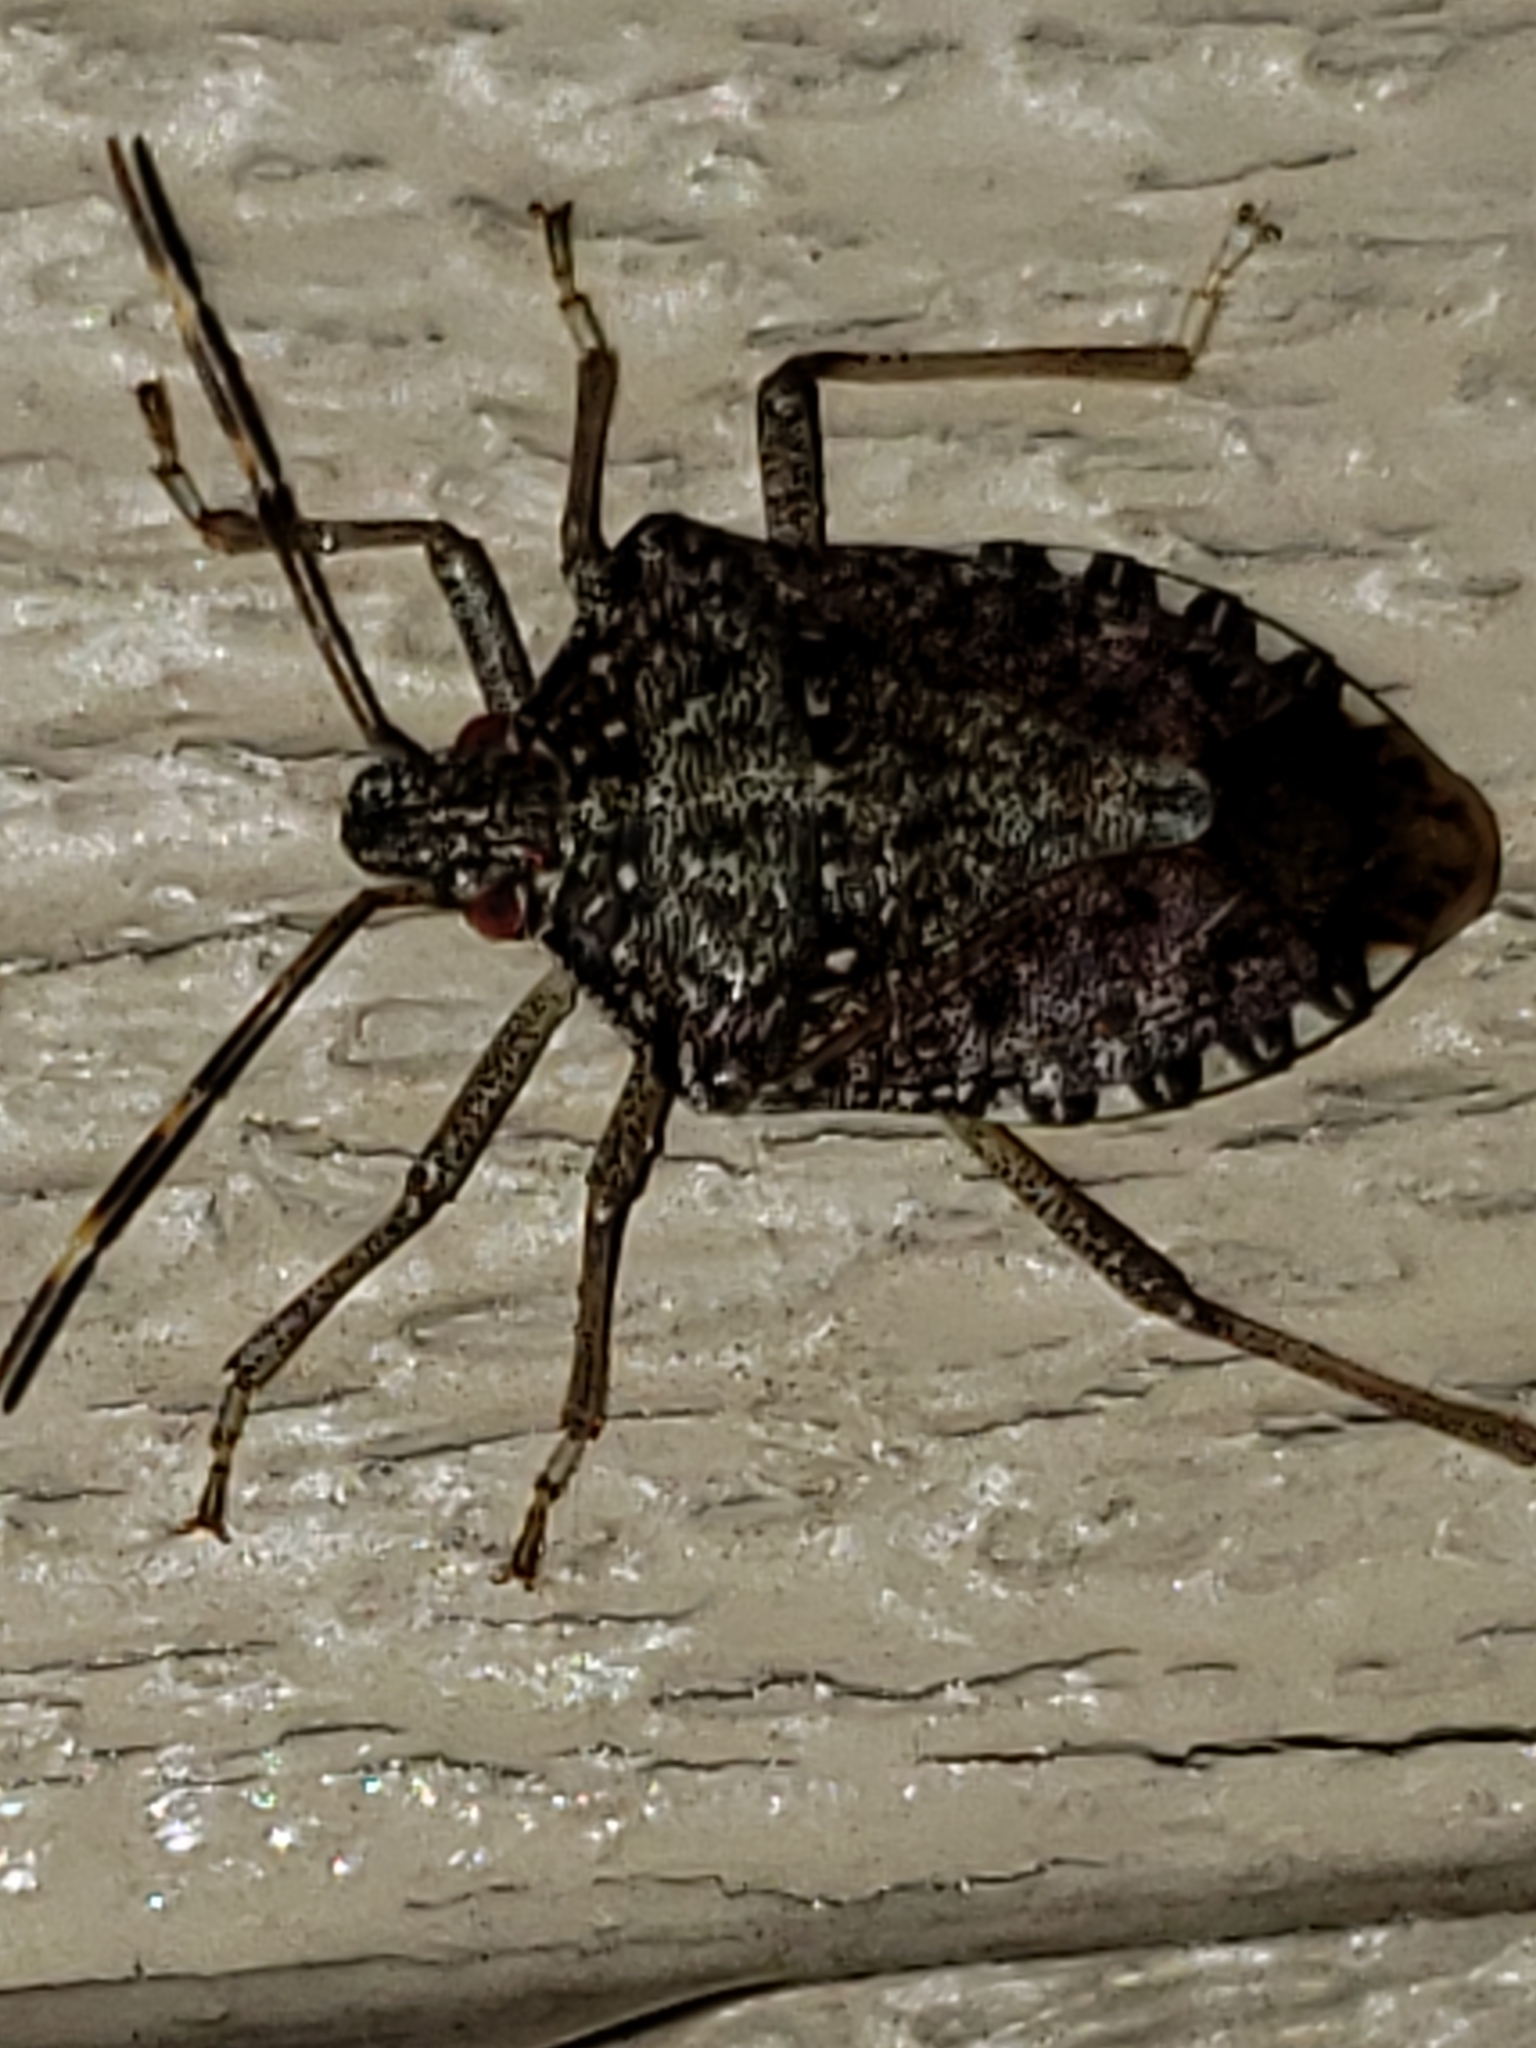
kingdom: Animalia
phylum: Arthropoda
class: Insecta
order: Hemiptera
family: Pentatomidae
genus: Halyomorpha
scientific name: Halyomorpha halys
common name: Brown marmorated stink bug
